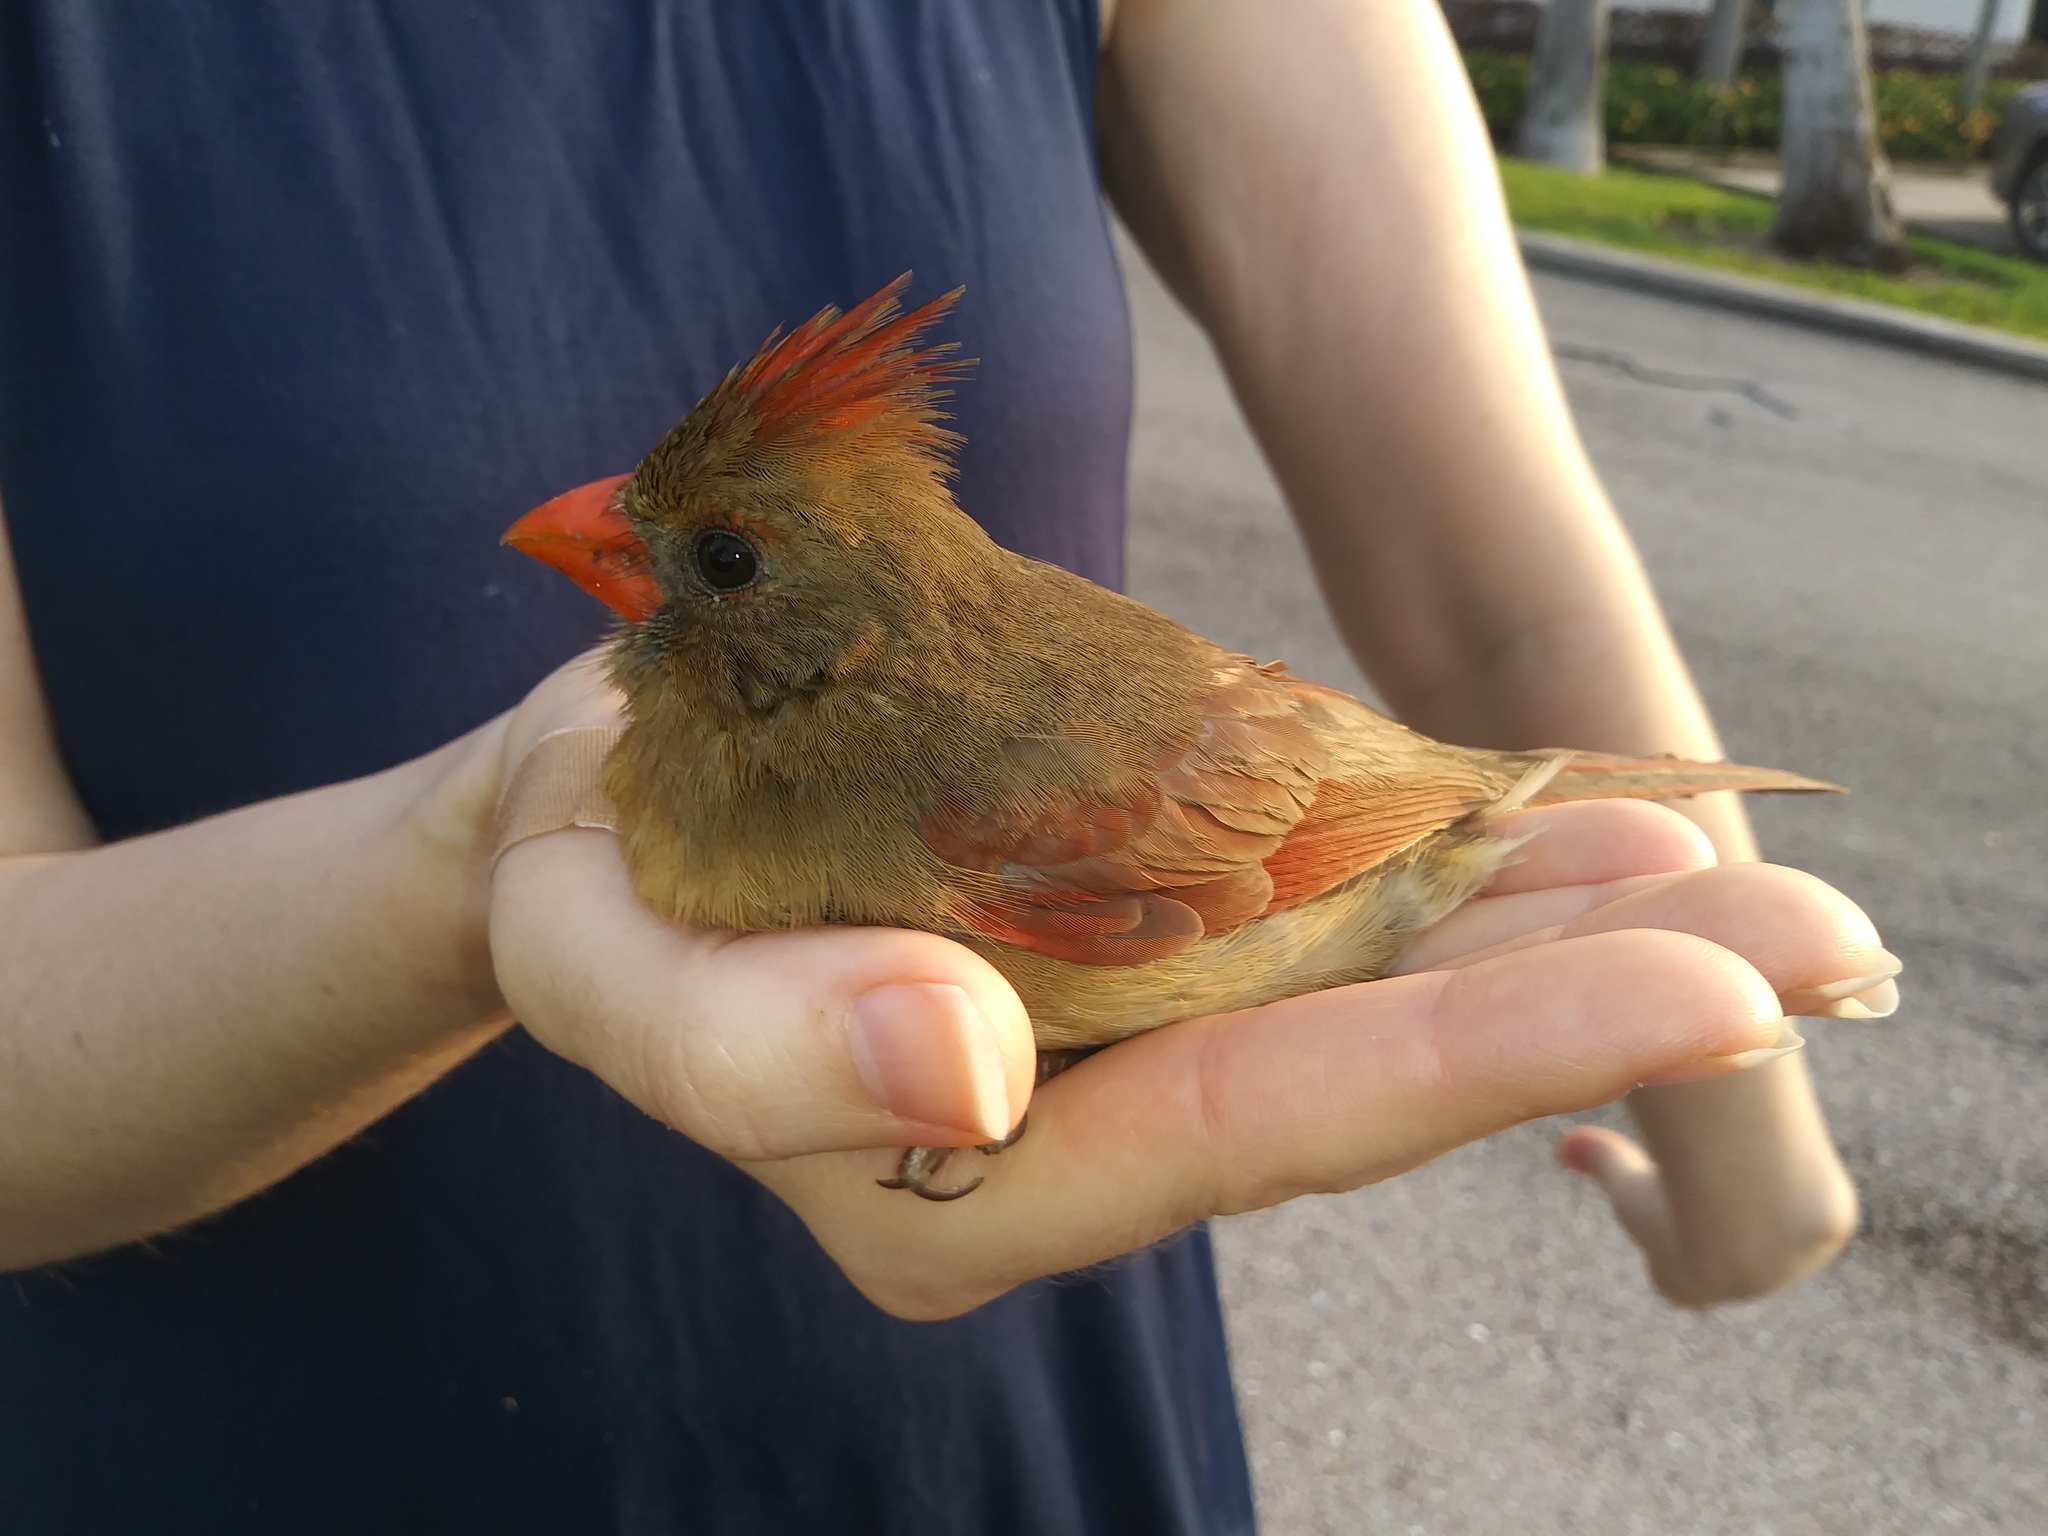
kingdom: Animalia
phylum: Chordata
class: Aves
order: Passeriformes
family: Cardinalidae
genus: Cardinalis
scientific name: Cardinalis cardinalis
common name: Northern cardinal
